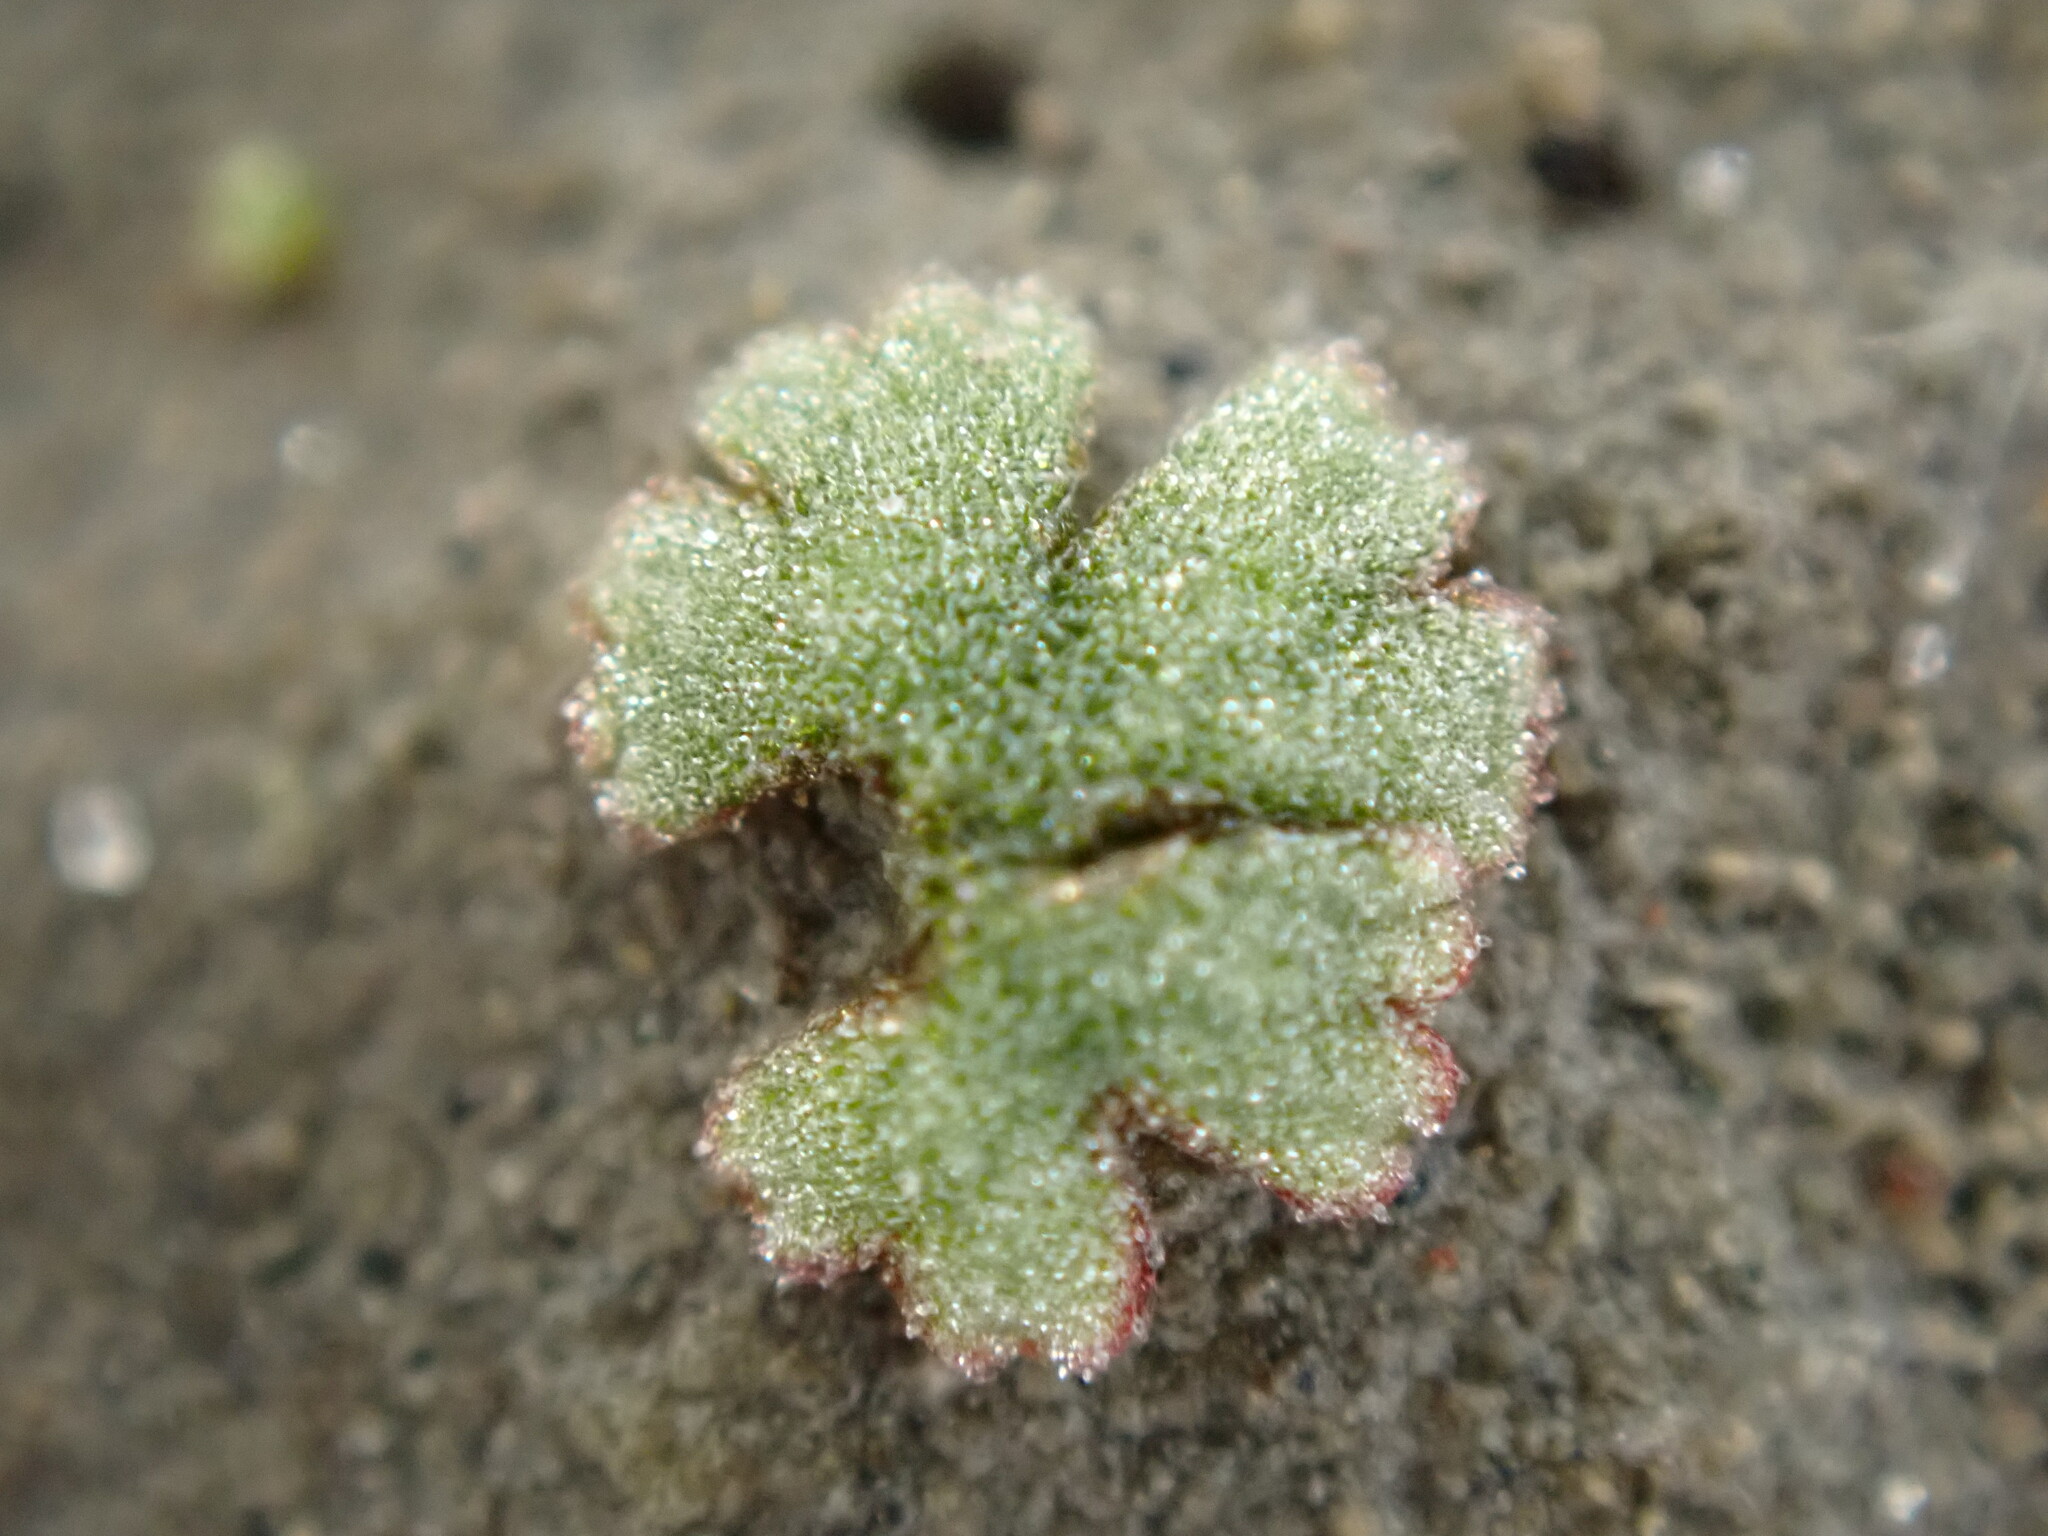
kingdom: Plantae
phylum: Marchantiophyta
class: Marchantiopsida
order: Marchantiales
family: Ricciaceae
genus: Riccia
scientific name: Riccia frostii
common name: Frost s crystalwort
